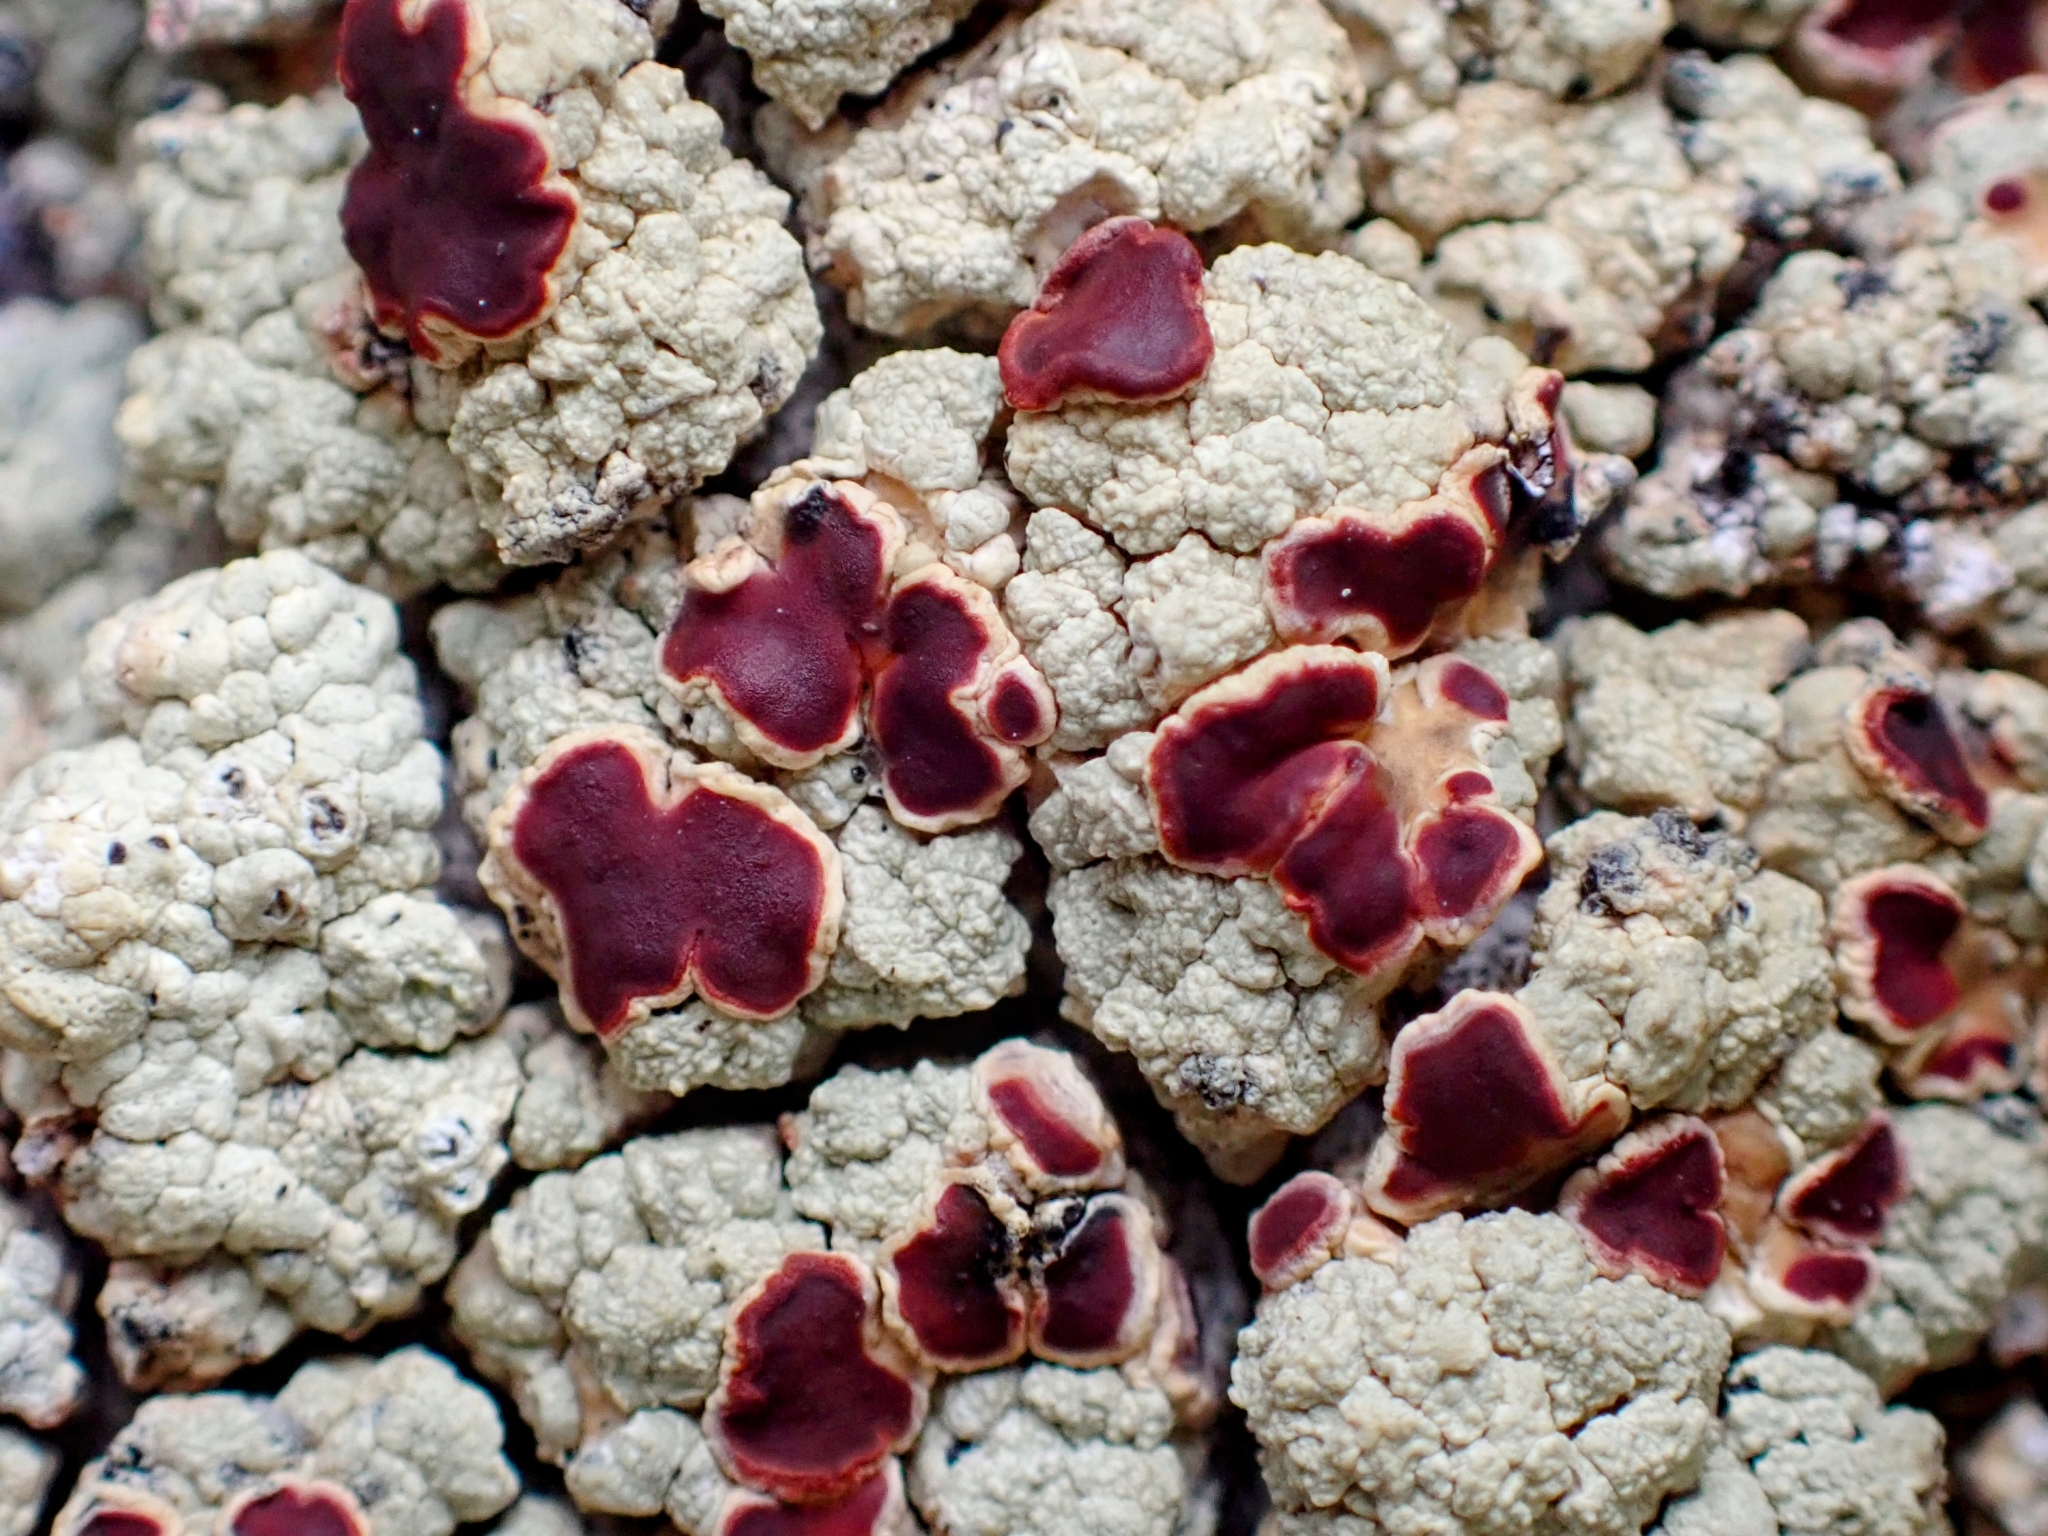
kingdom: Fungi
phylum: Ascomycota
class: Lecanoromycetes
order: Umbilicariales
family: Ophioparmaceae
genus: Ophioparma
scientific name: Ophioparma ventosa
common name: Blood-spot
